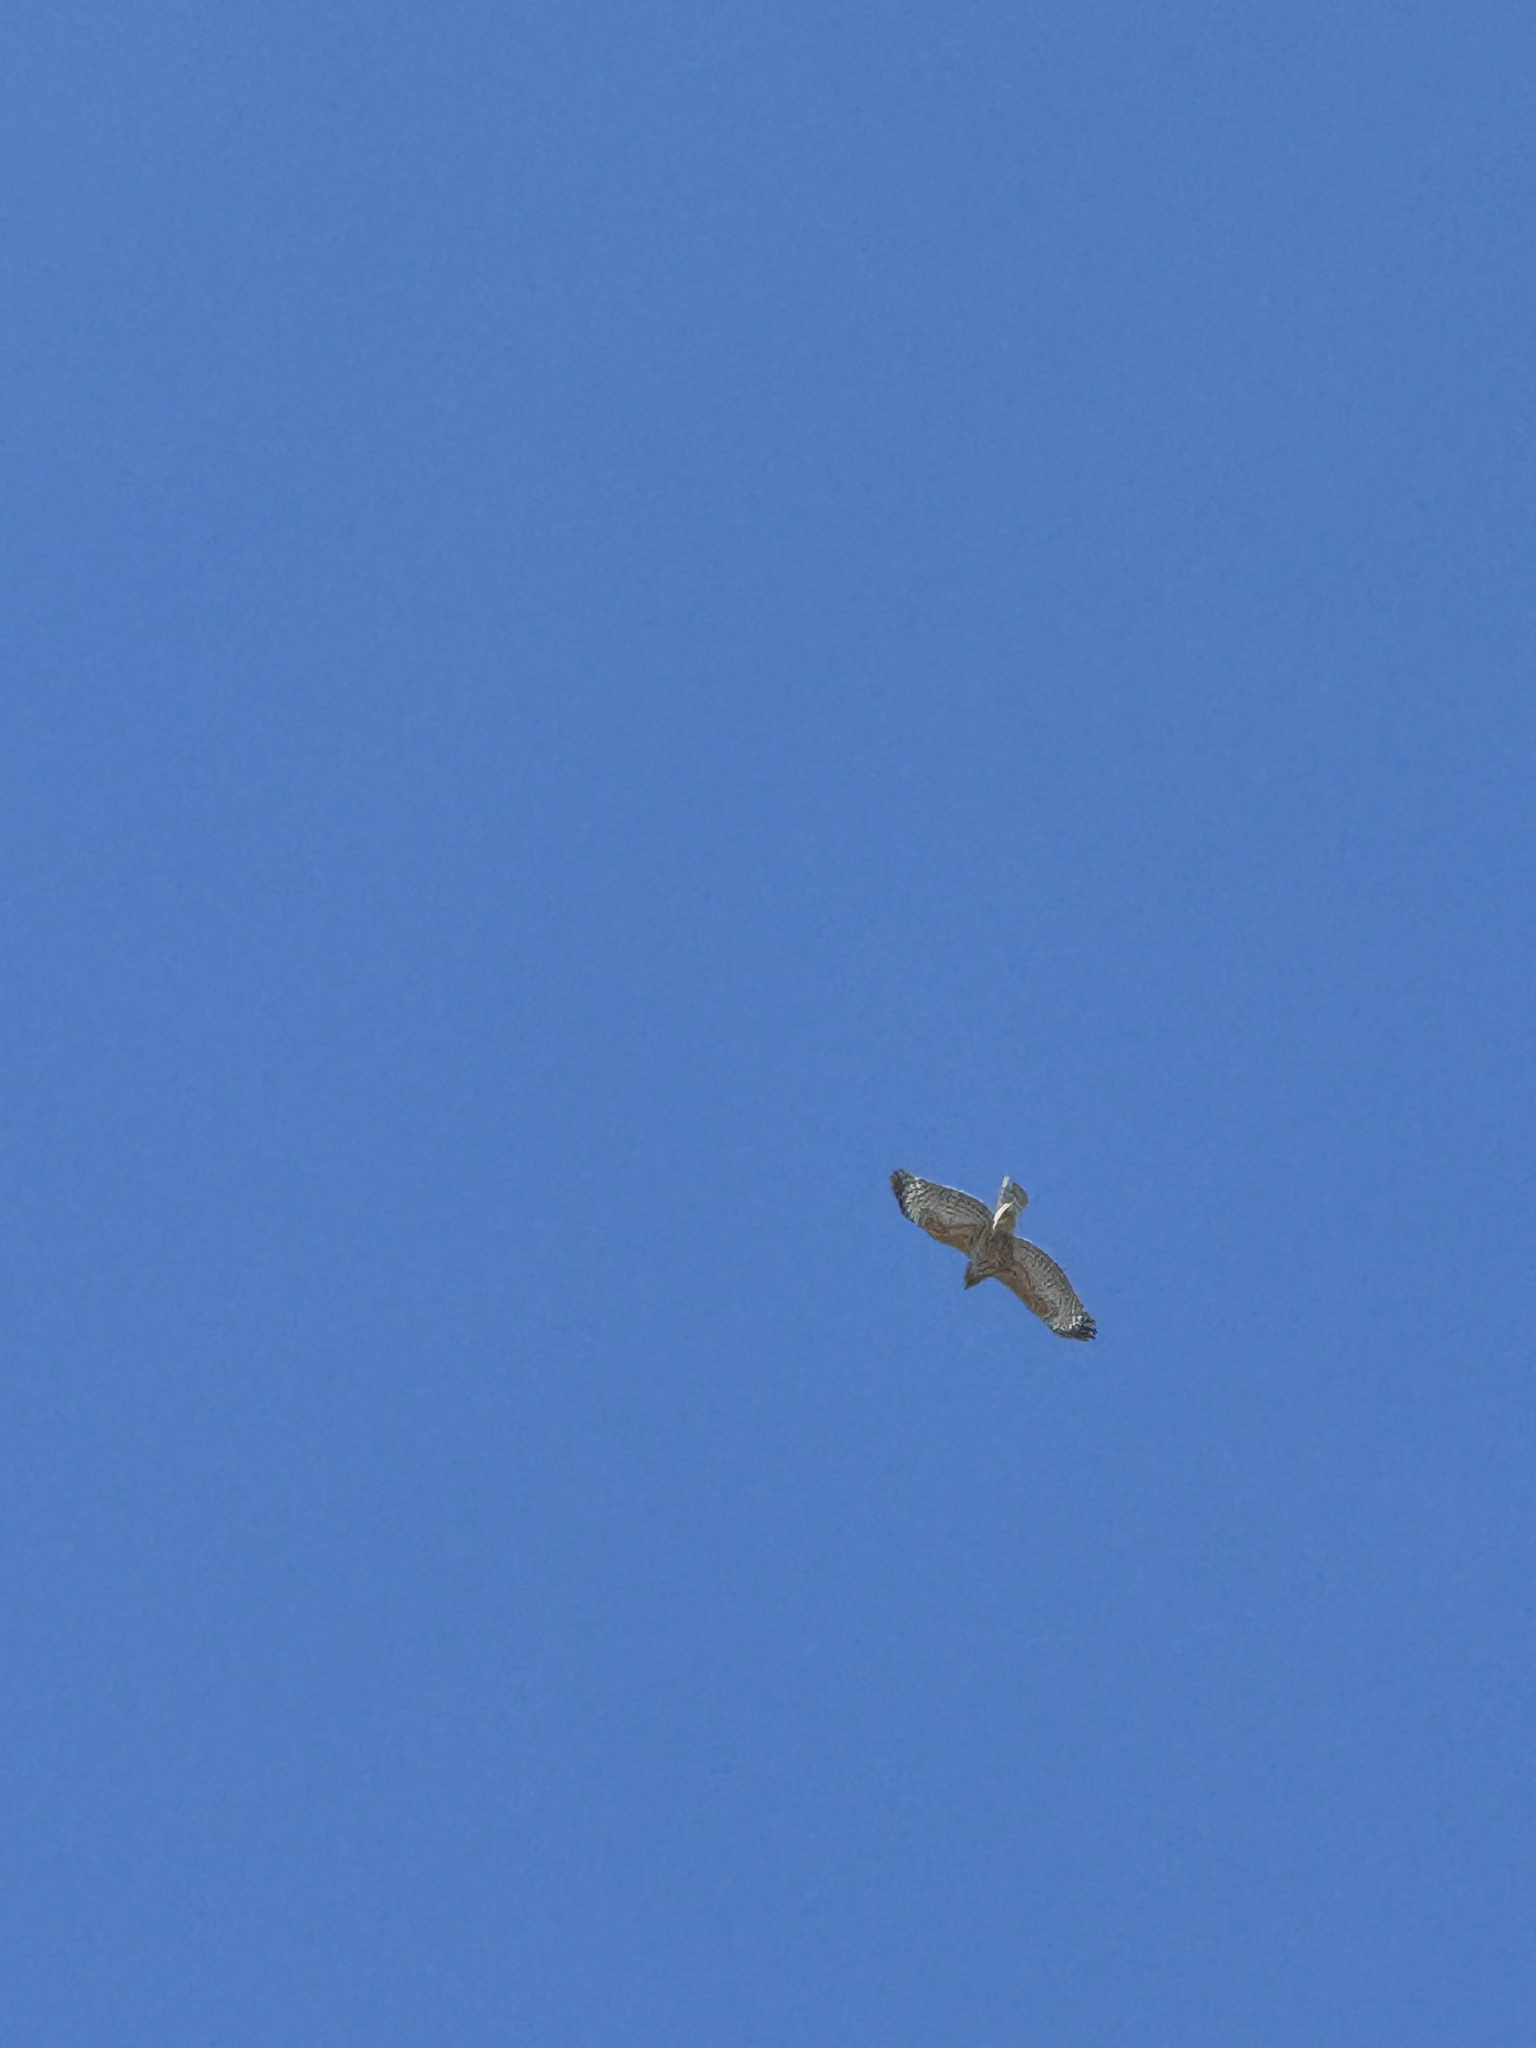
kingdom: Animalia
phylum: Chordata
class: Aves
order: Accipitriformes
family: Accipitridae
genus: Buteo
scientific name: Buteo lineatus
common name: Red-shouldered hawk
